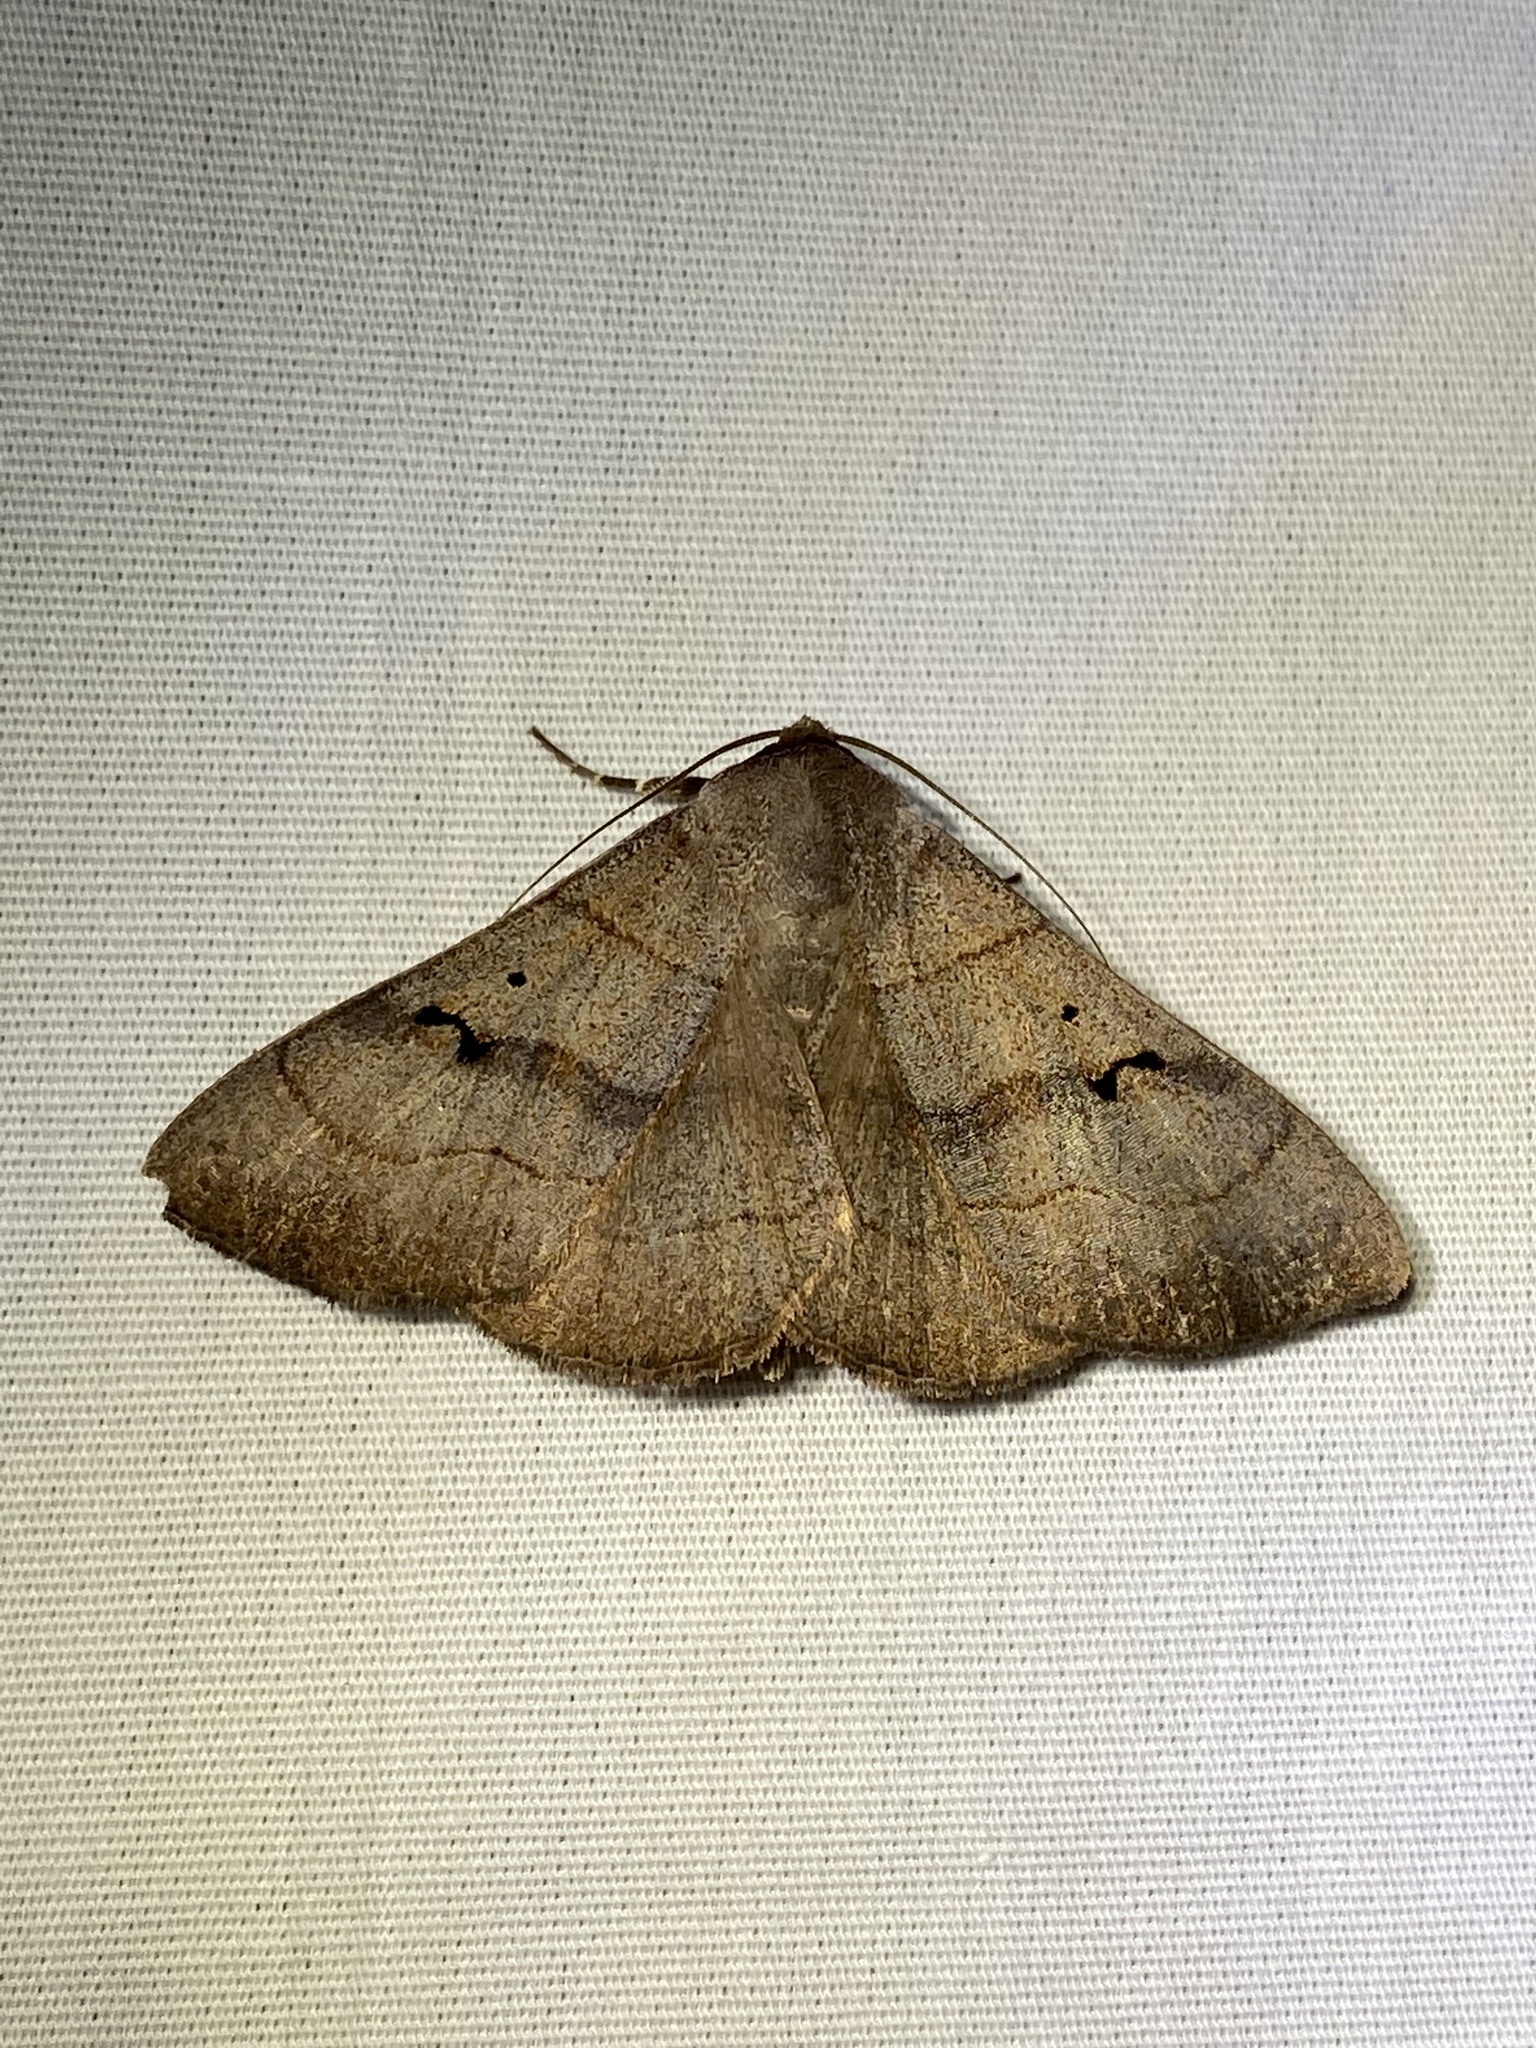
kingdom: Animalia
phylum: Arthropoda
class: Insecta
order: Lepidoptera
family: Erebidae
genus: Panopoda
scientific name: Panopoda carneicosta
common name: Brown panopoda moth
